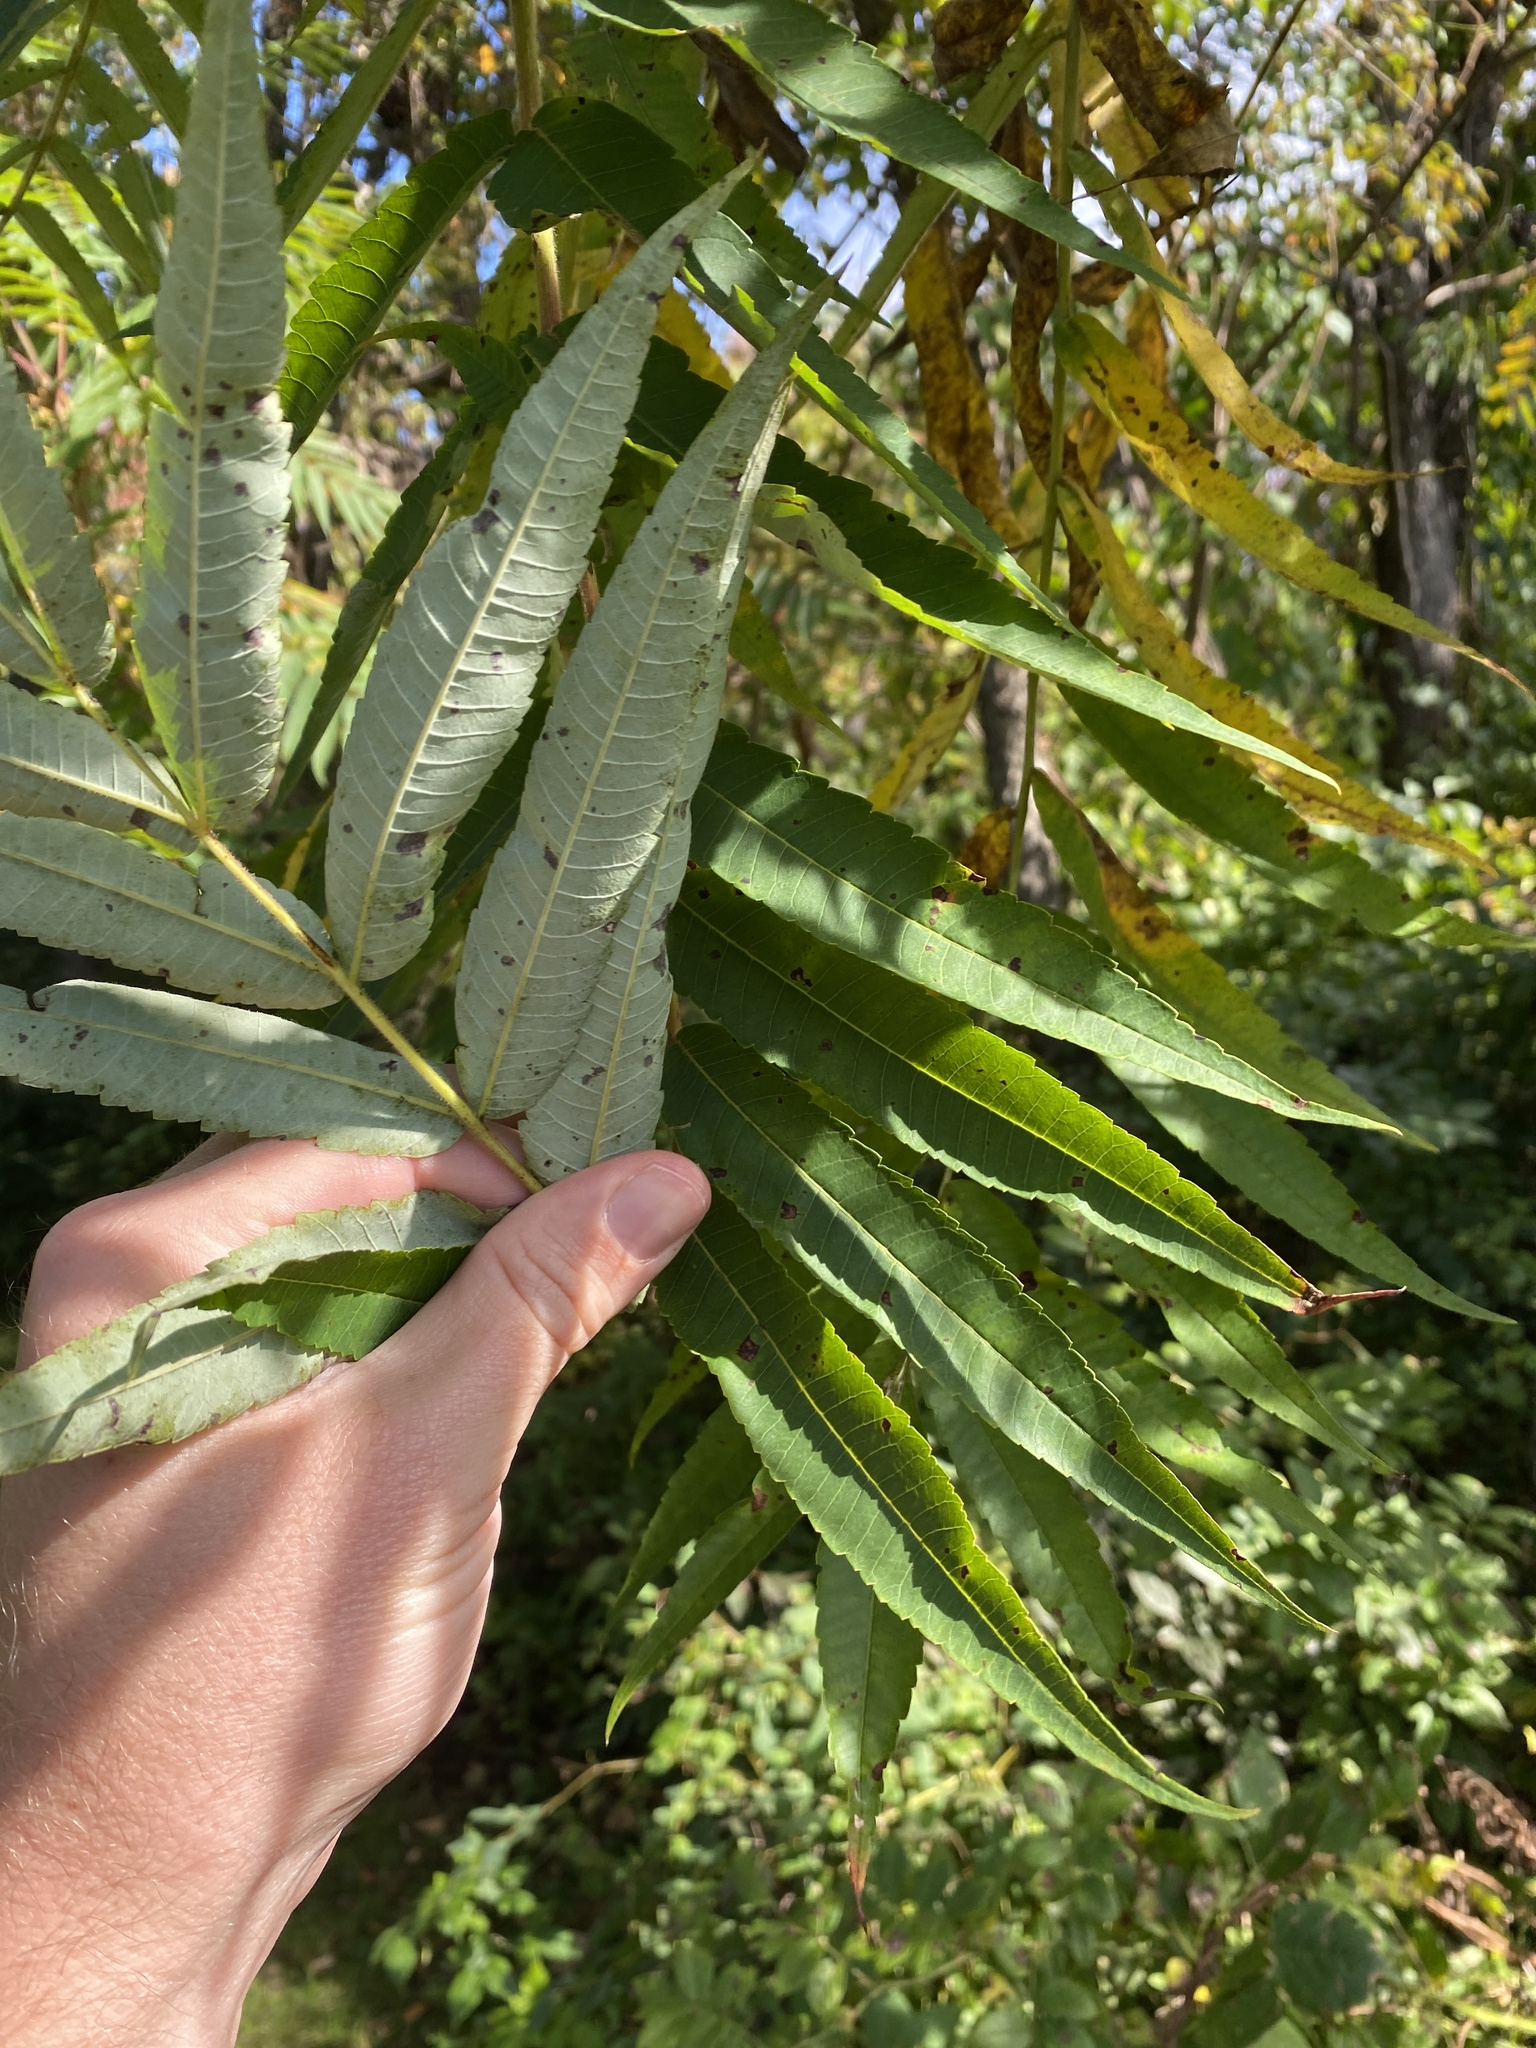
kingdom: Plantae
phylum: Tracheophyta
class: Magnoliopsida
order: Sapindales
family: Anacardiaceae
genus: Rhus
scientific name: Rhus typhina
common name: Staghorn sumac
